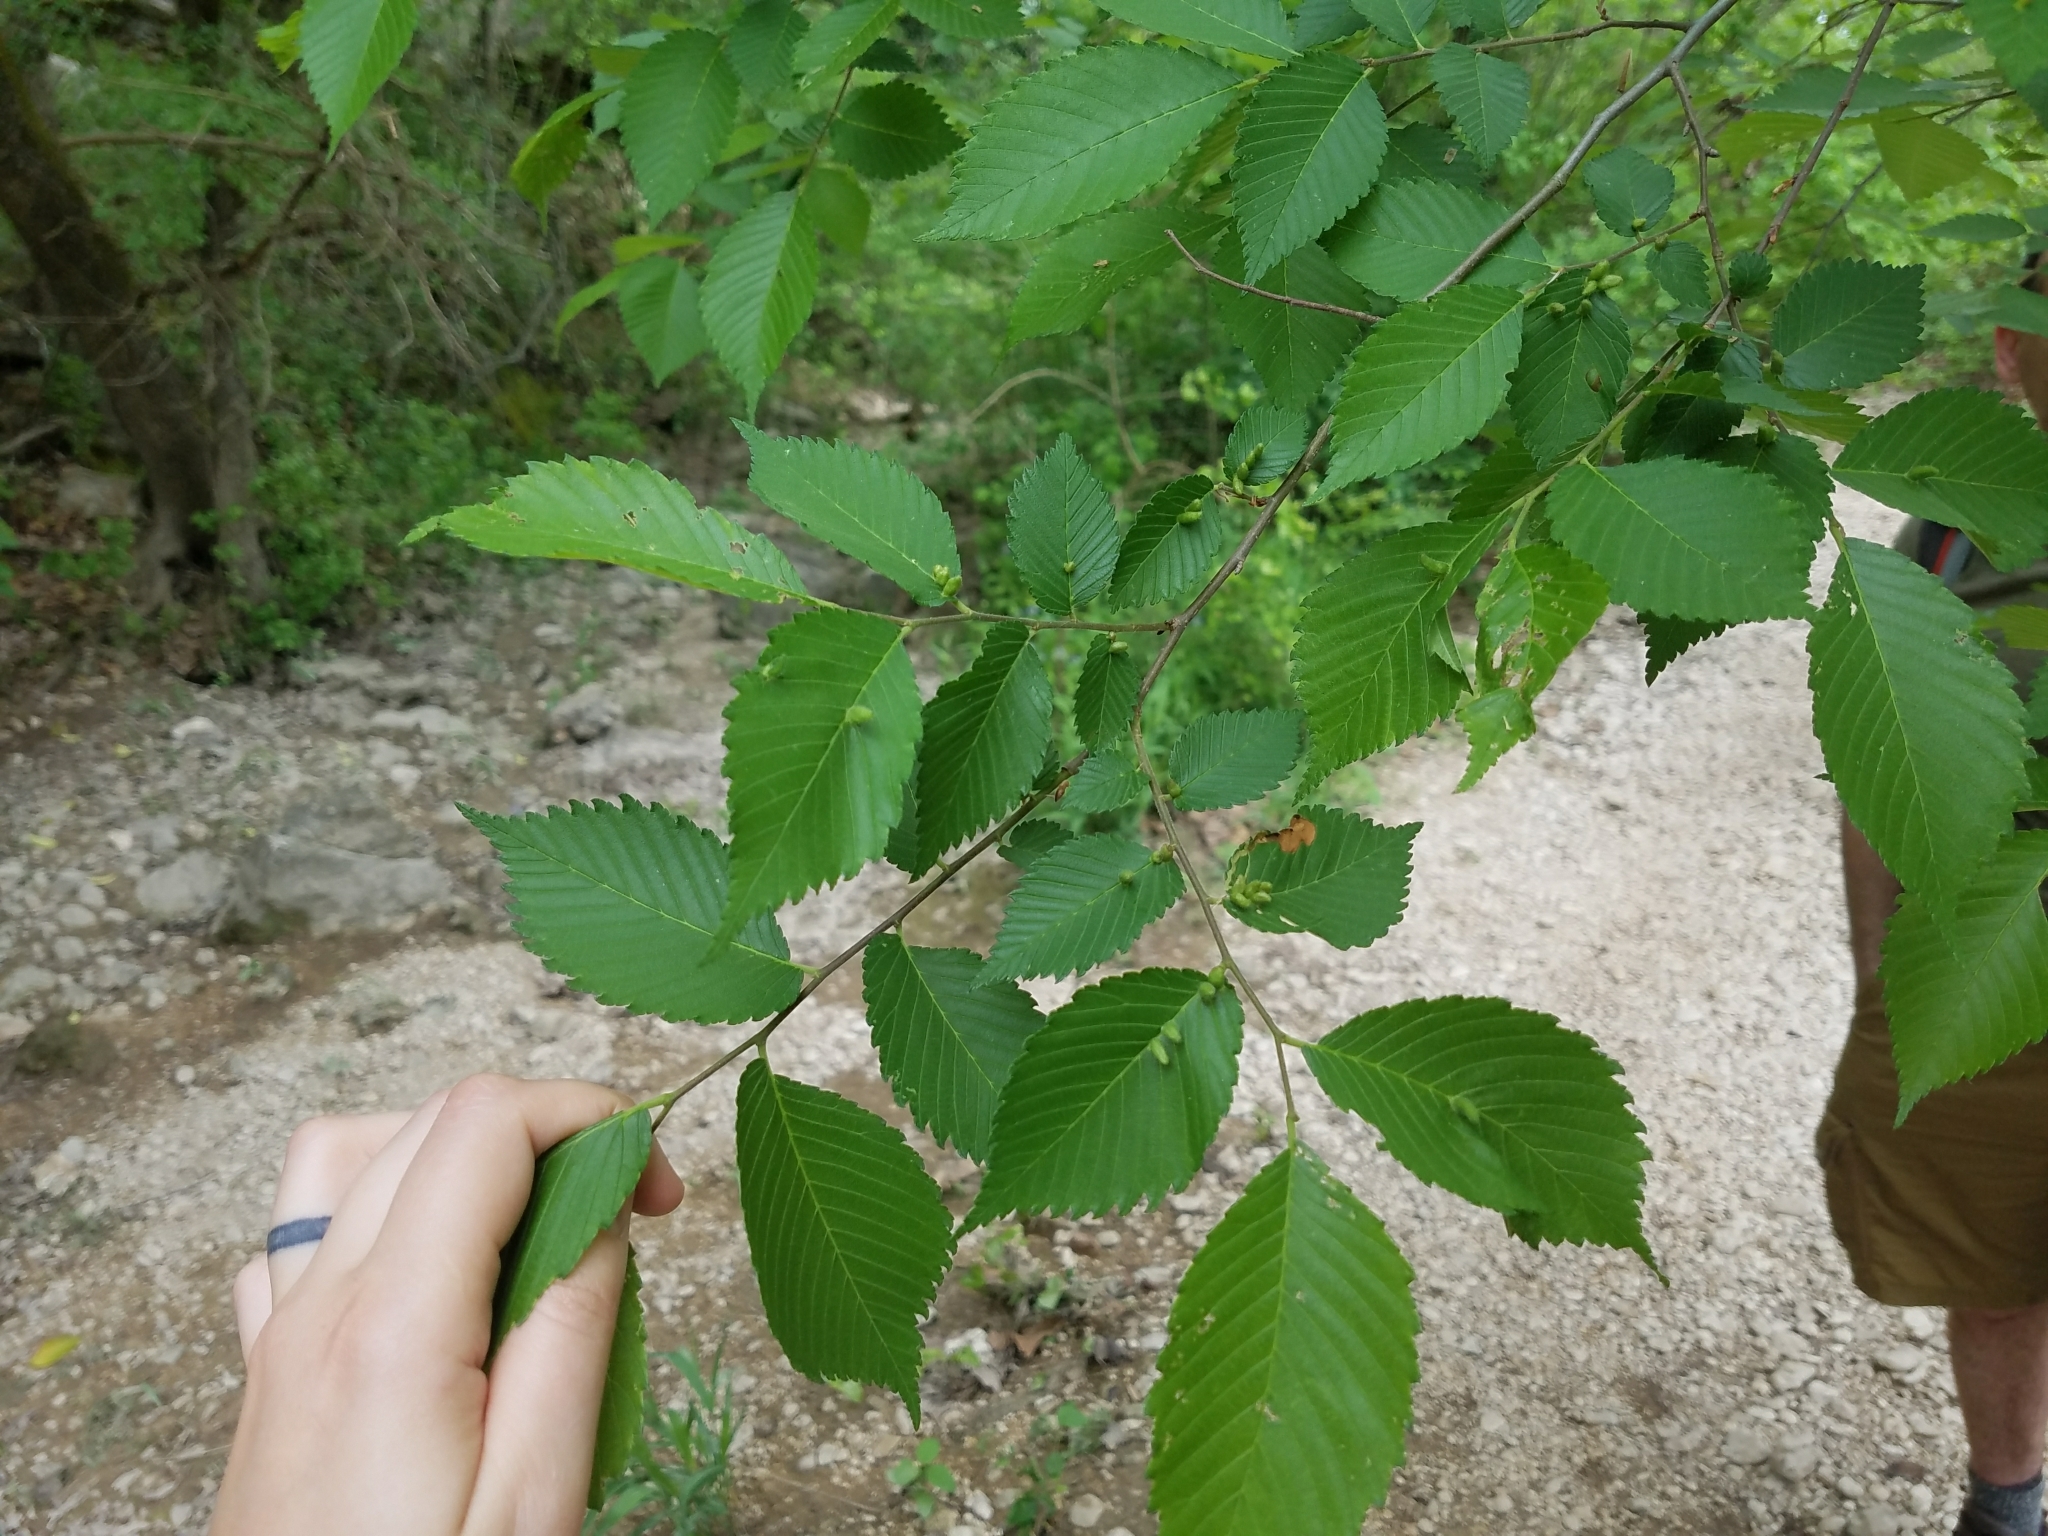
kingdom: Animalia
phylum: Arthropoda
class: Arachnida
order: Trombidiformes
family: Eriophyidae
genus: Aceria
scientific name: Aceria
